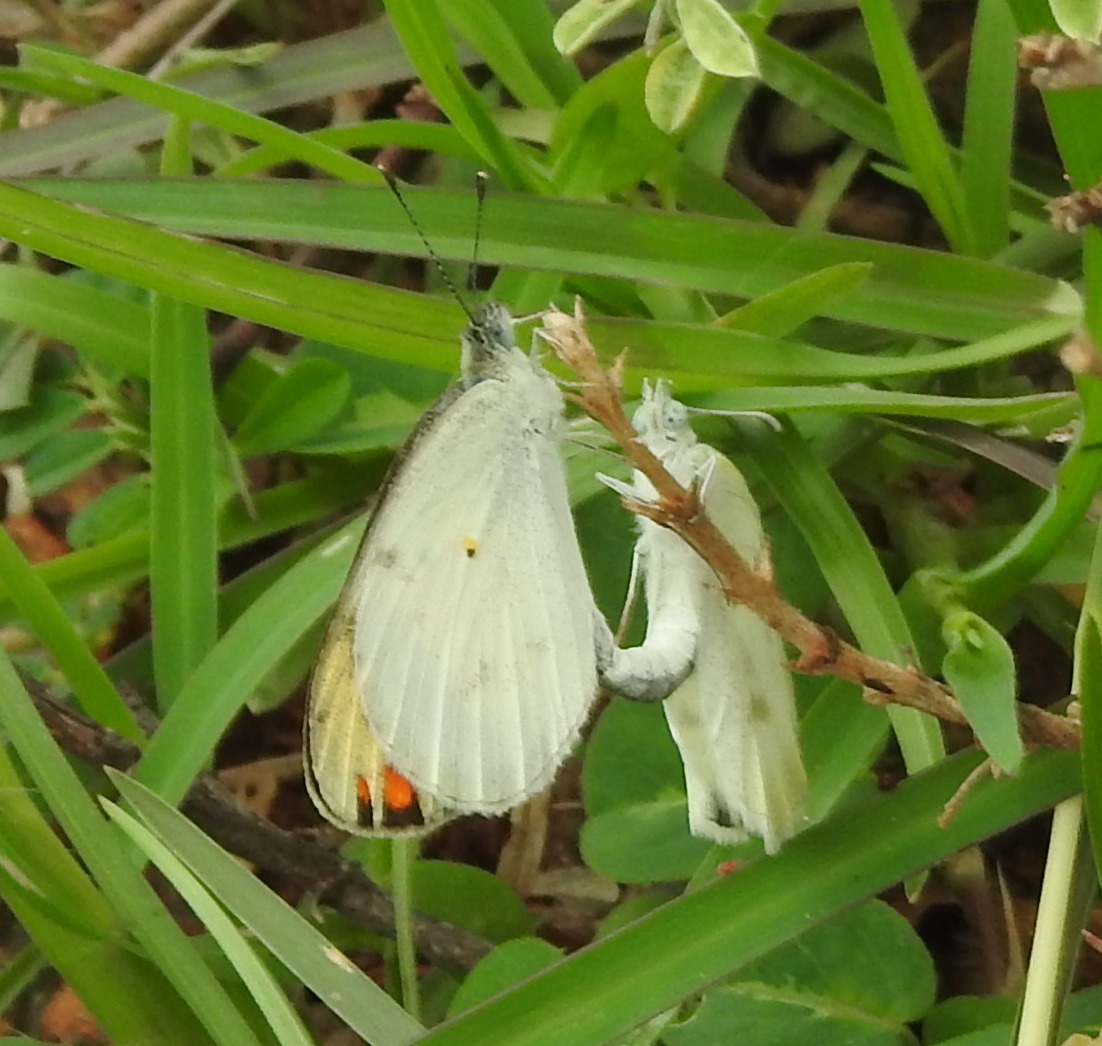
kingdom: Animalia
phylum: Arthropoda
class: Insecta
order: Lepidoptera
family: Pieridae
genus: Colotis
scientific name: Colotis etrida
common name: Little orange tip
